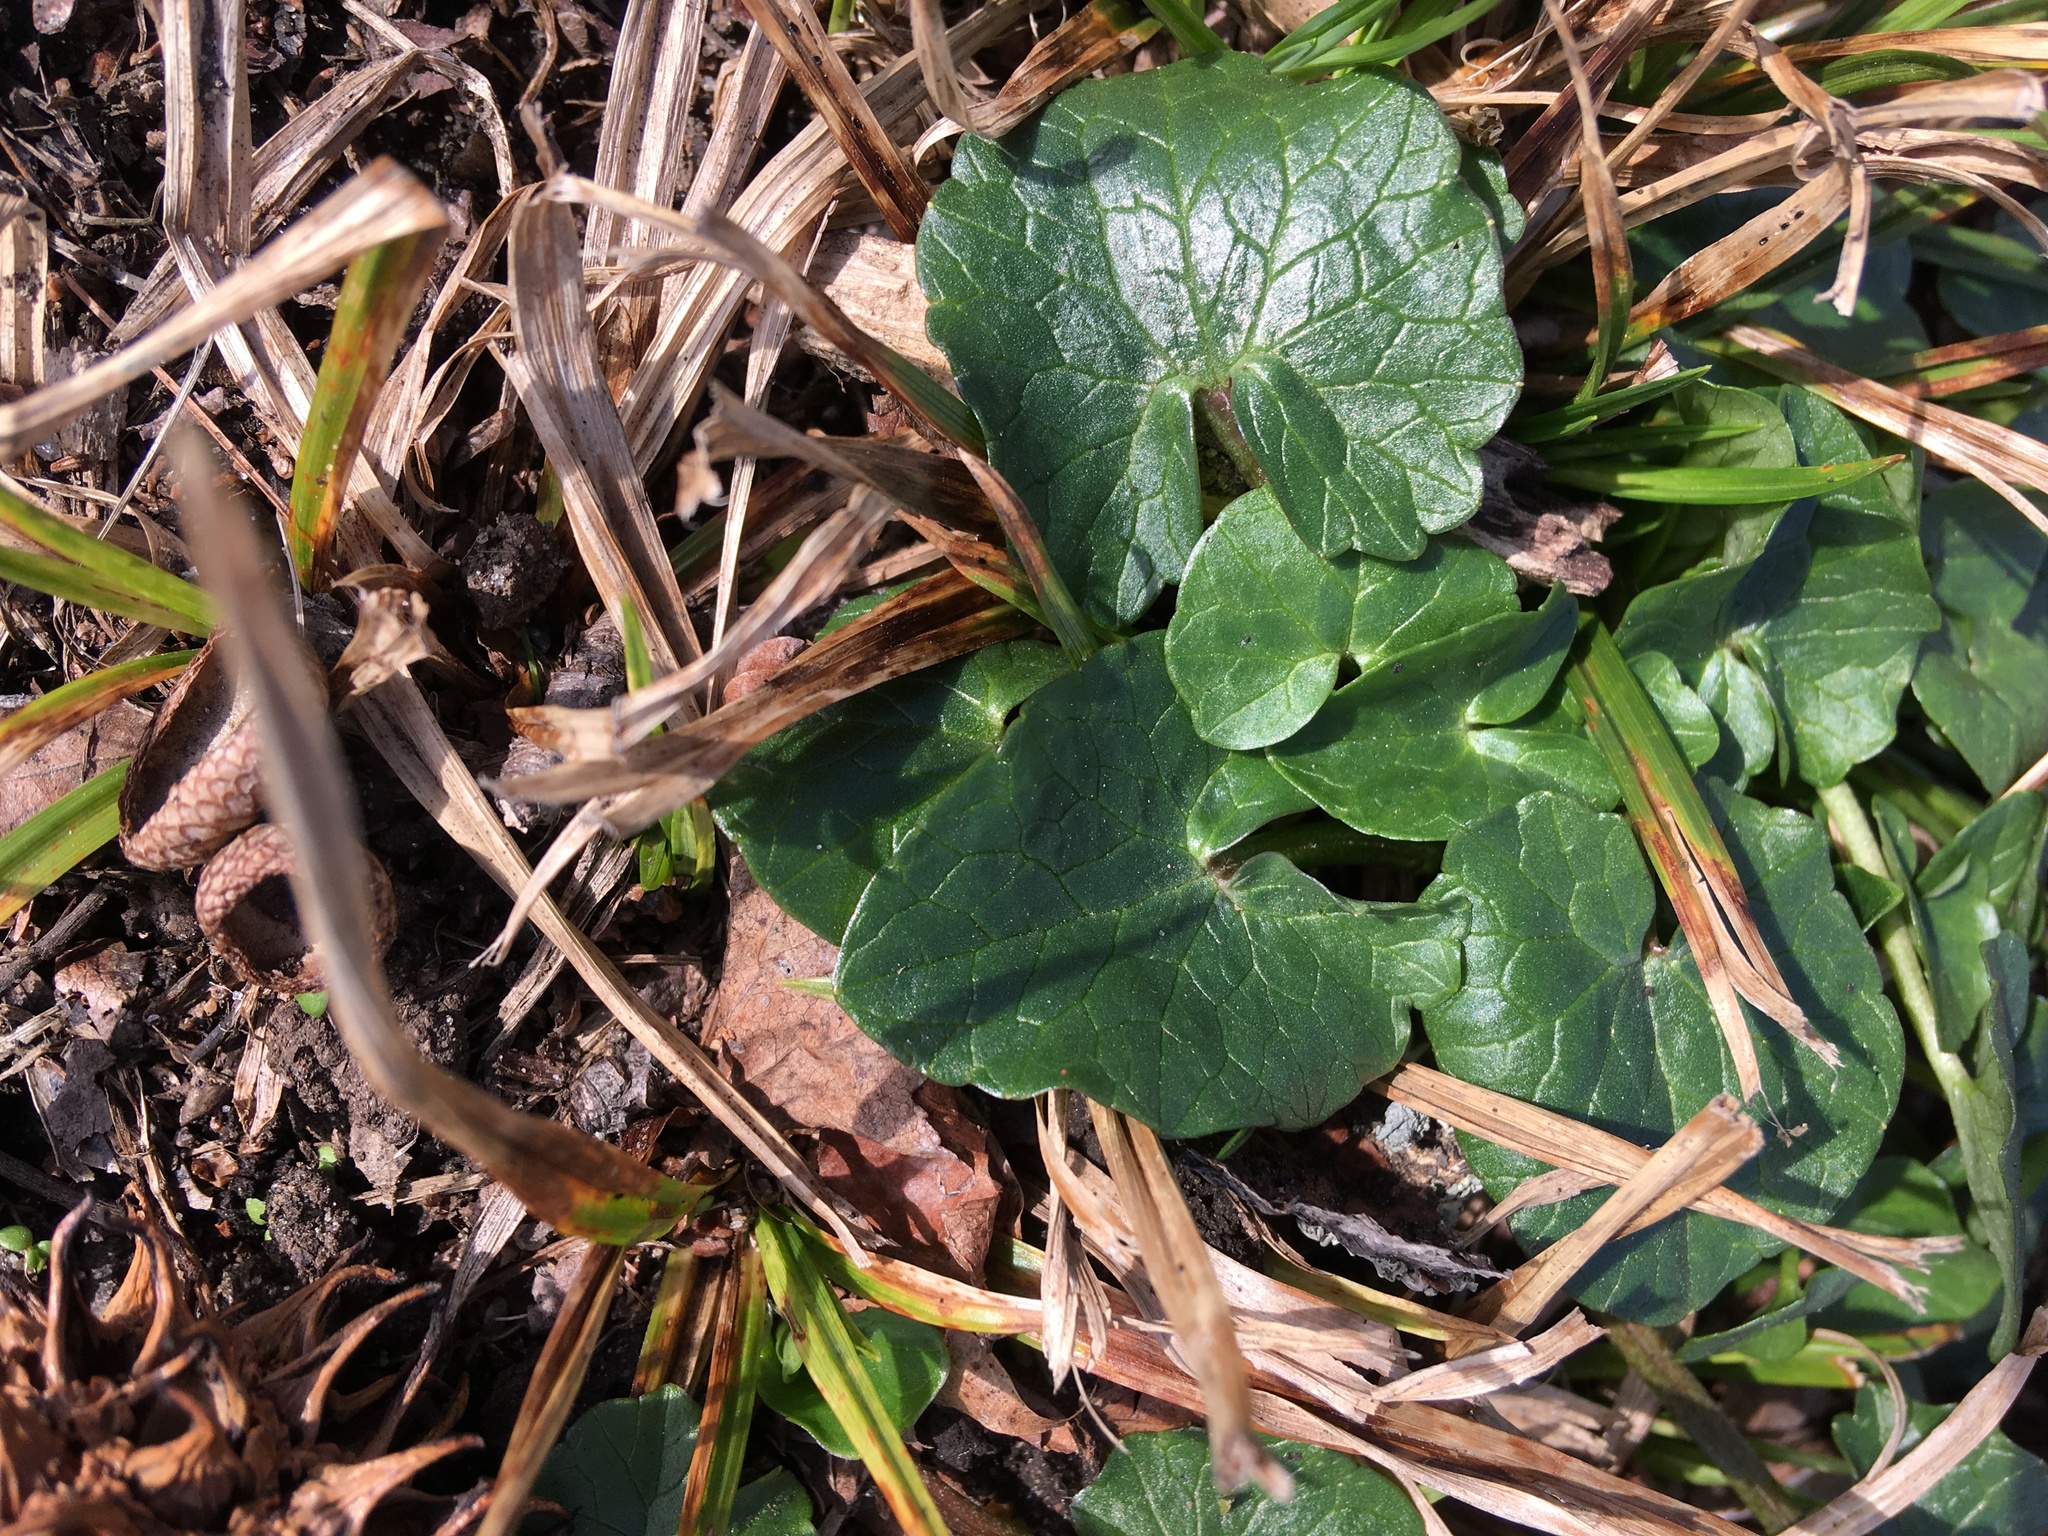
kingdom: Plantae
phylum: Tracheophyta
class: Magnoliopsida
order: Ranunculales
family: Ranunculaceae
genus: Ficaria
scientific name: Ficaria verna
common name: Lesser celandine
